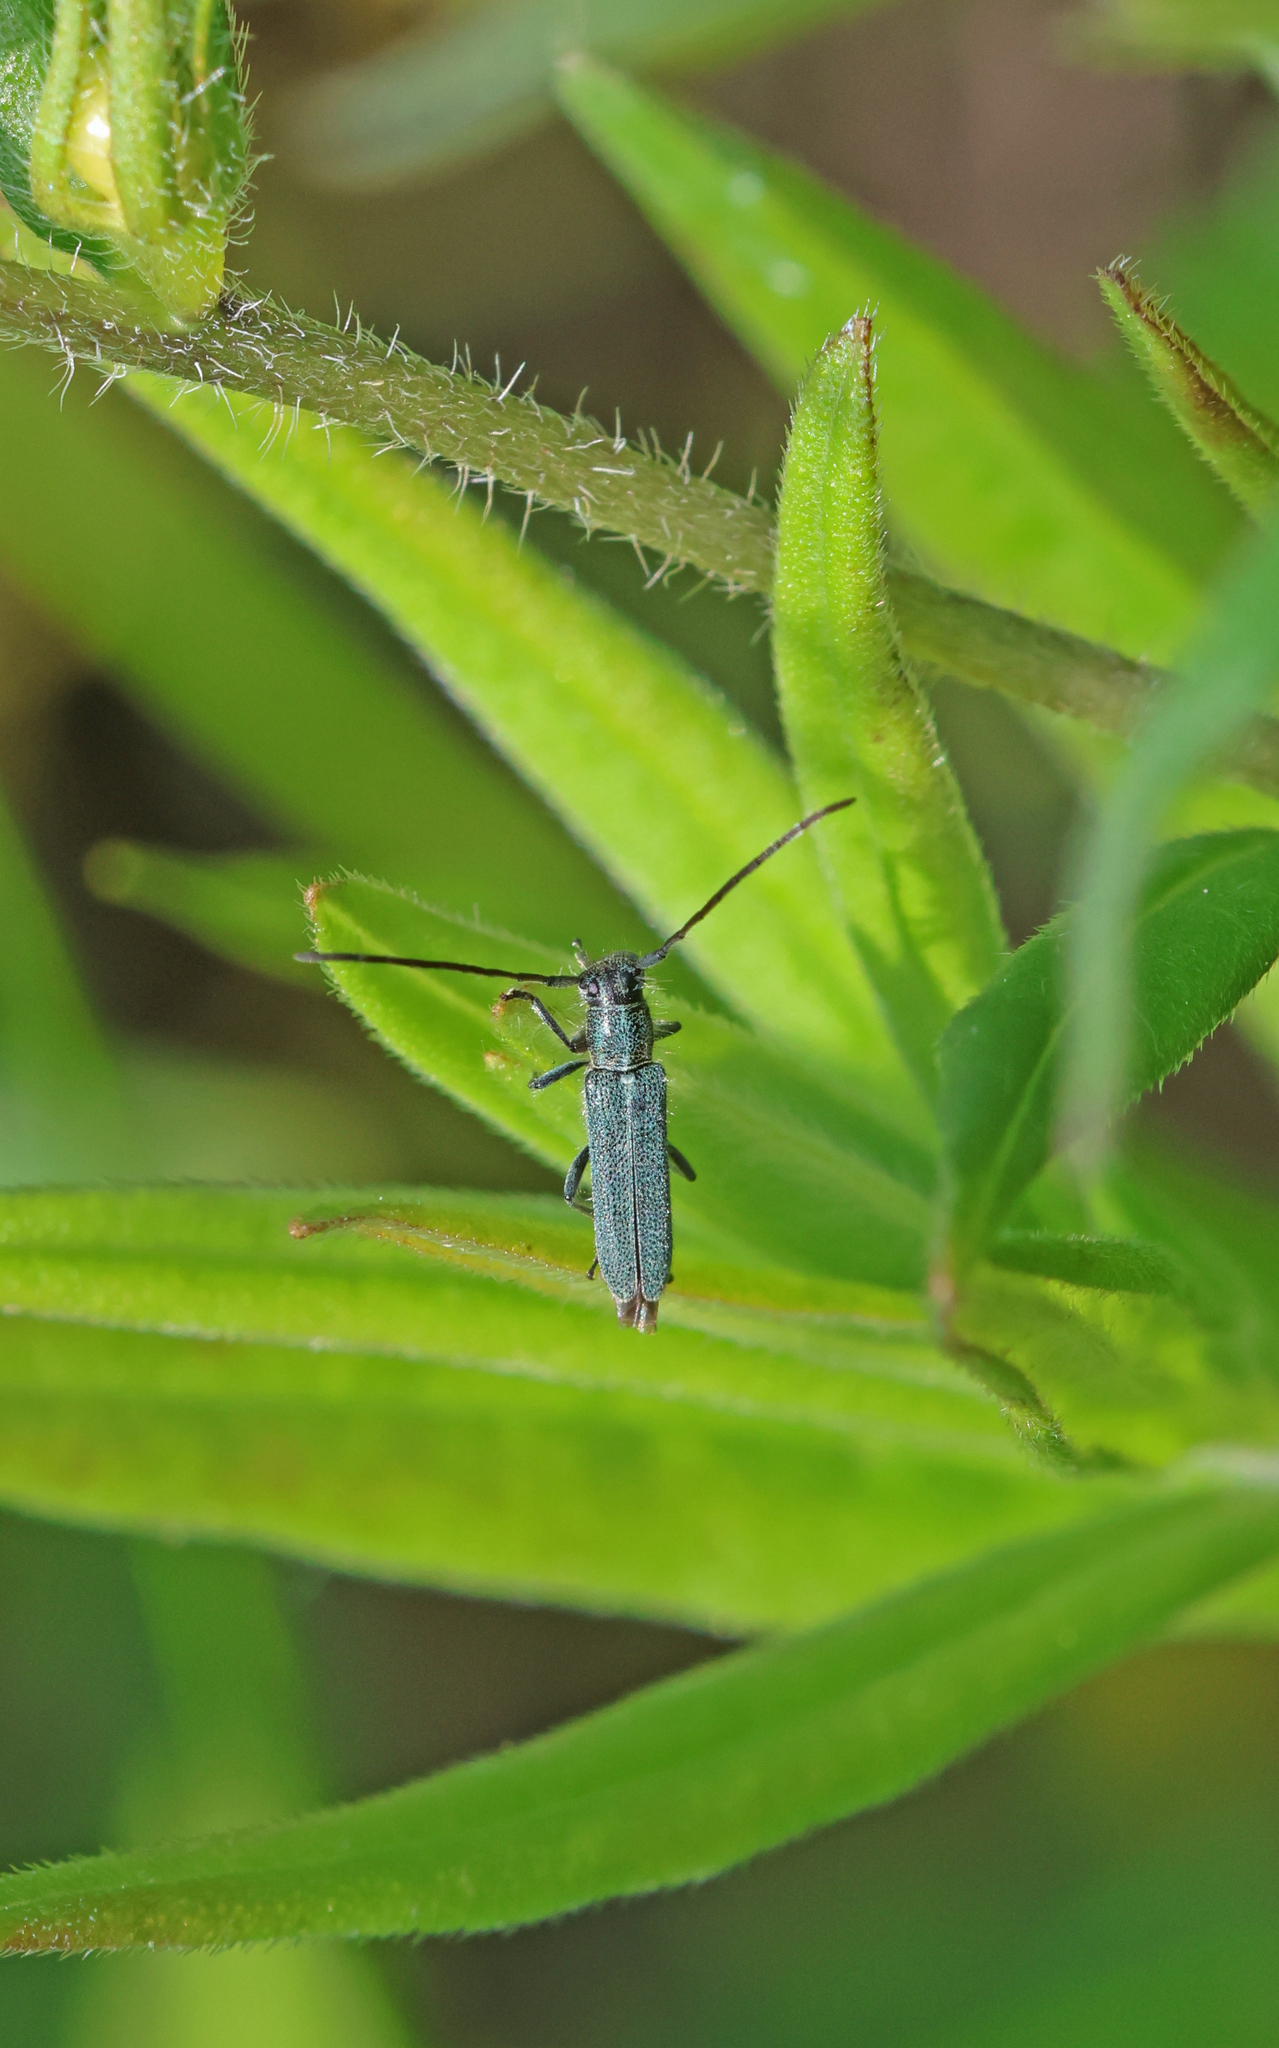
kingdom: Animalia
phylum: Arthropoda
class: Insecta
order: Coleoptera
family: Cerambycidae
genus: Phytoecia
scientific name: Phytoecia coerulescens
